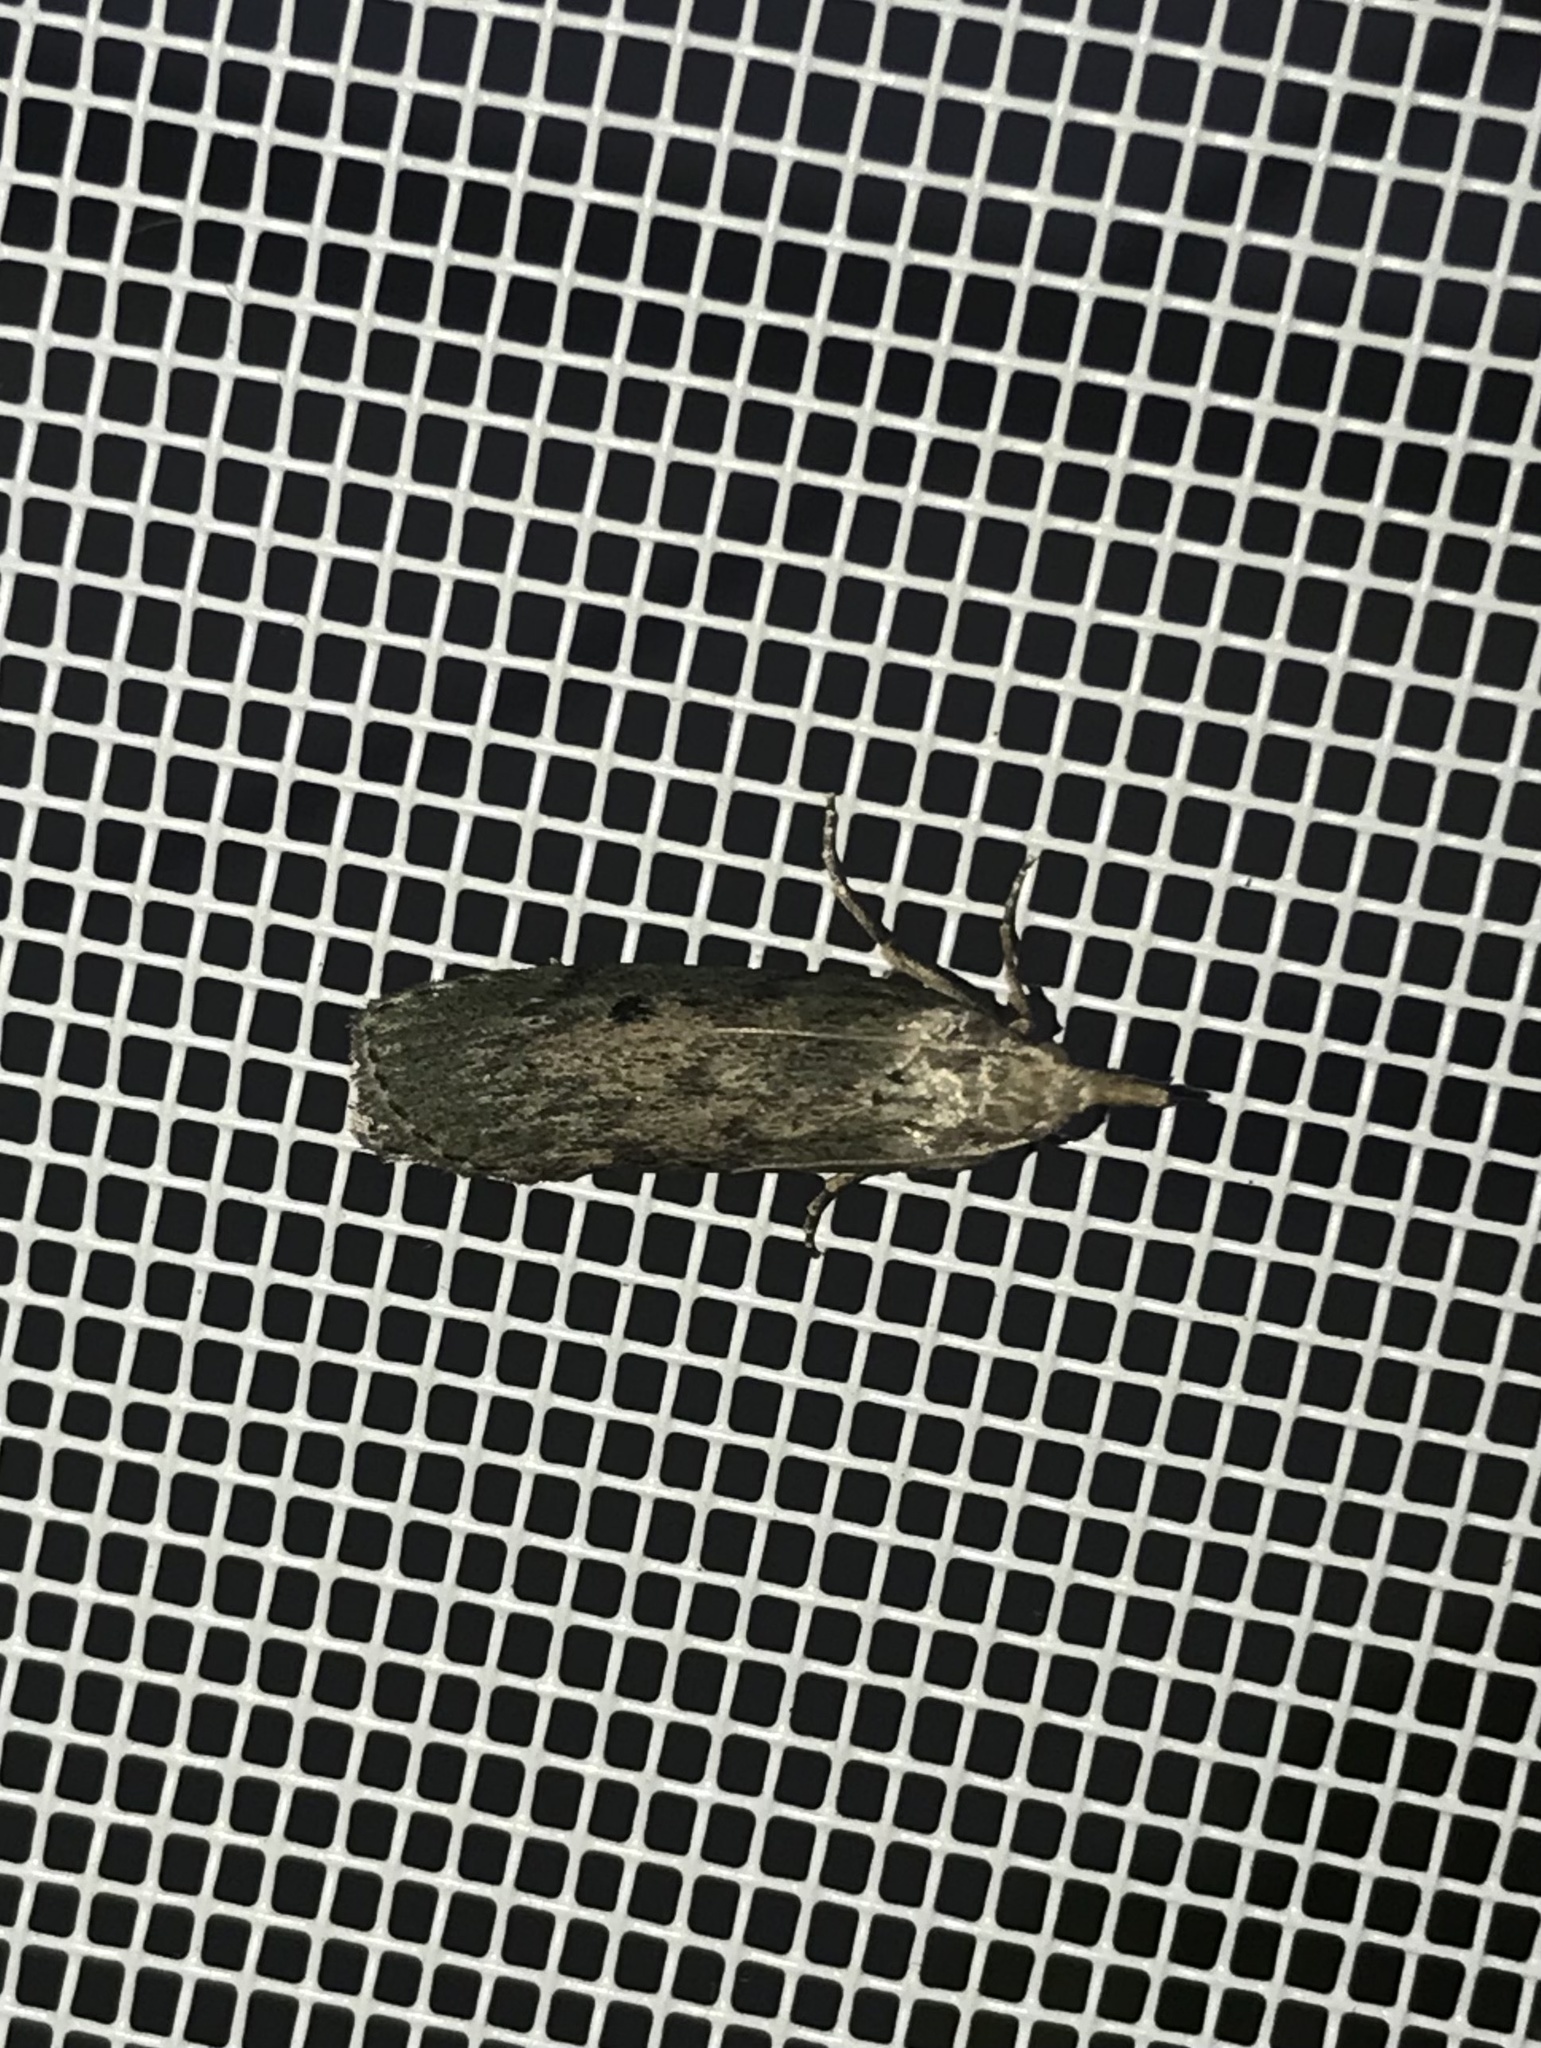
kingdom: Animalia
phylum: Arthropoda
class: Insecta
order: Lepidoptera
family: Pyralidae
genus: Aphomia
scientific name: Aphomia sociella
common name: Bee moth
